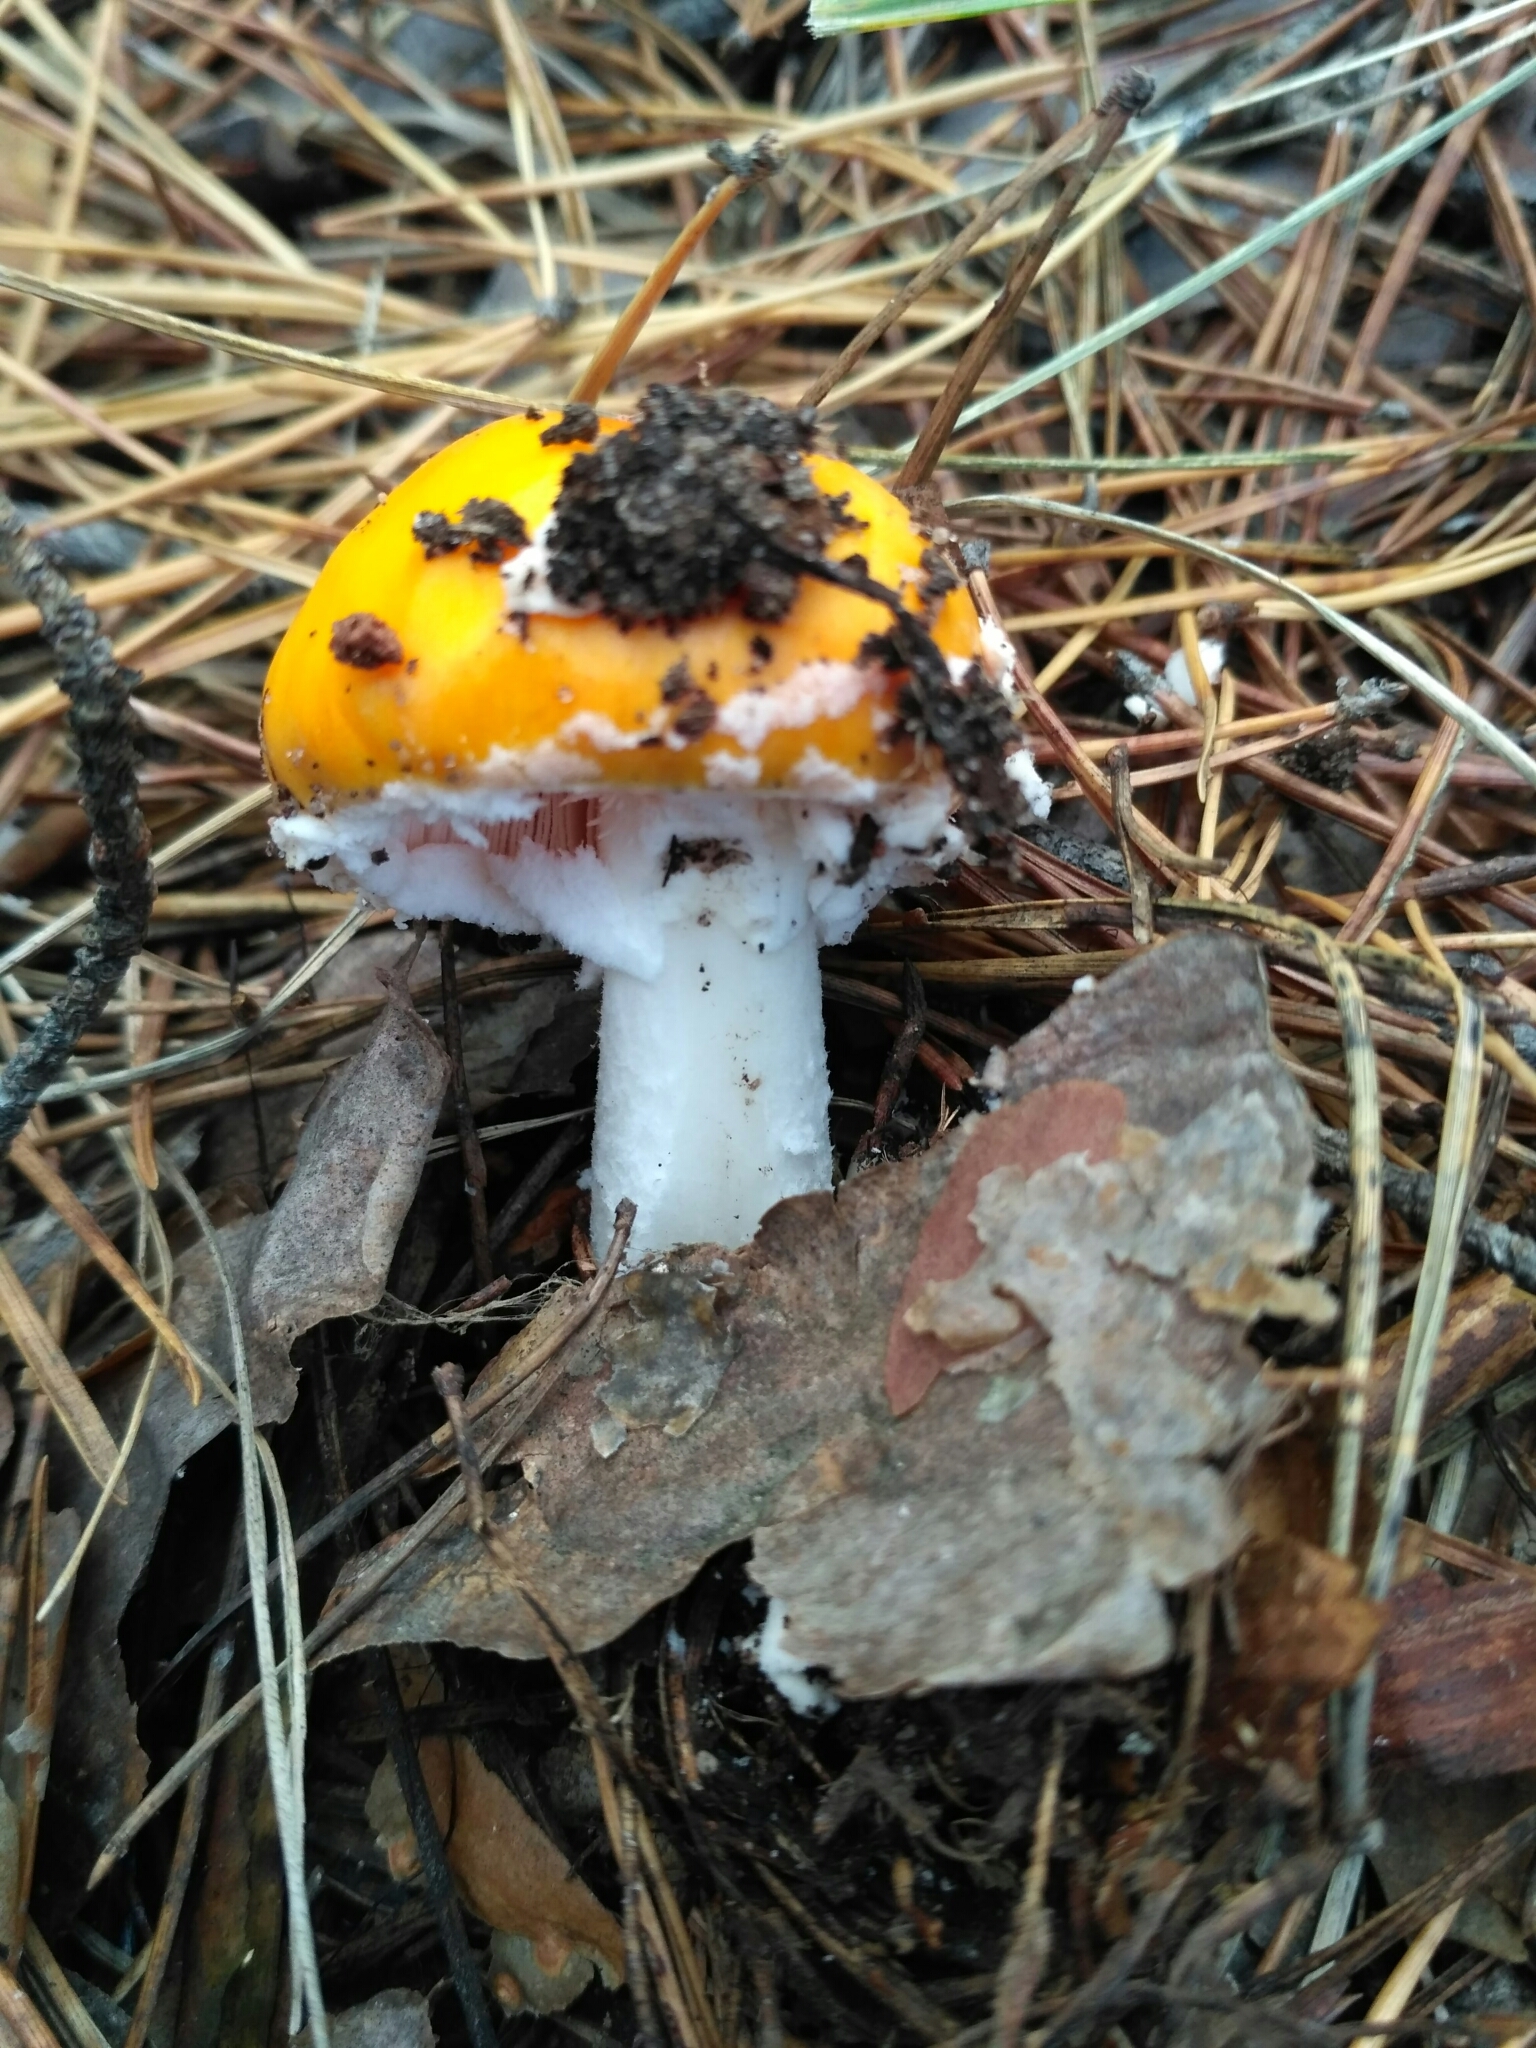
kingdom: Fungi
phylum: Basidiomycota
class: Agaricomycetes
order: Agaricales
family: Amanitaceae
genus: Amanita
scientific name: Amanita muscaria
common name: Fly agaric
